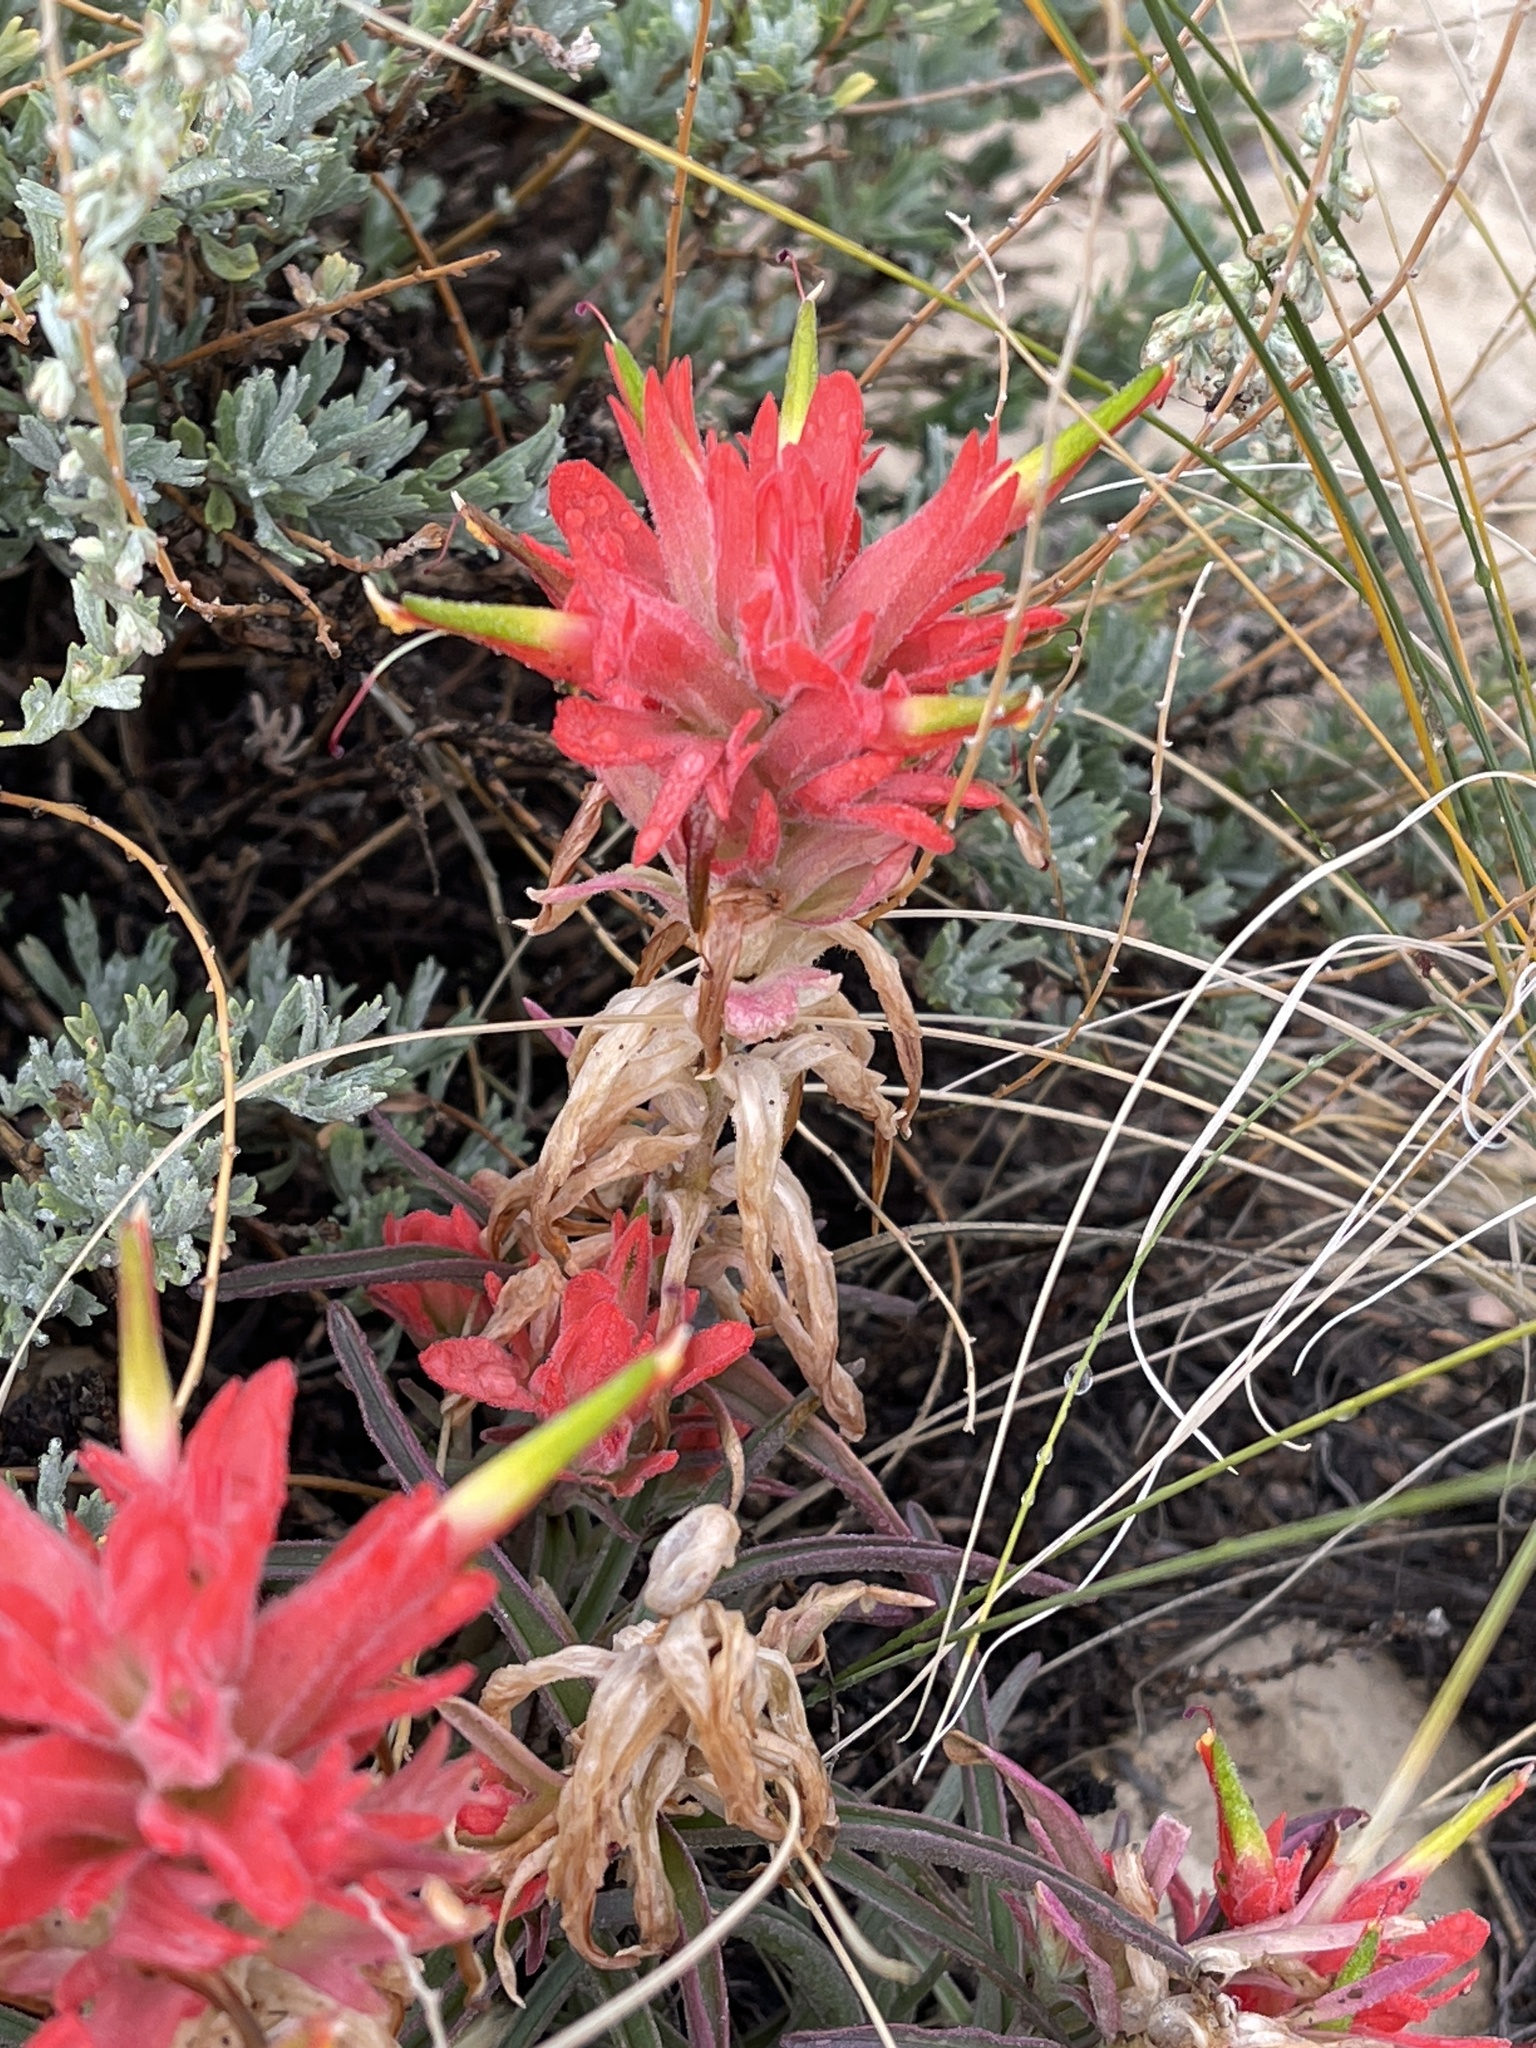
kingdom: Plantae
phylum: Tracheophyta
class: Magnoliopsida
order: Lamiales
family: Orobanchaceae
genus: Castilleja
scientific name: Castilleja integra
